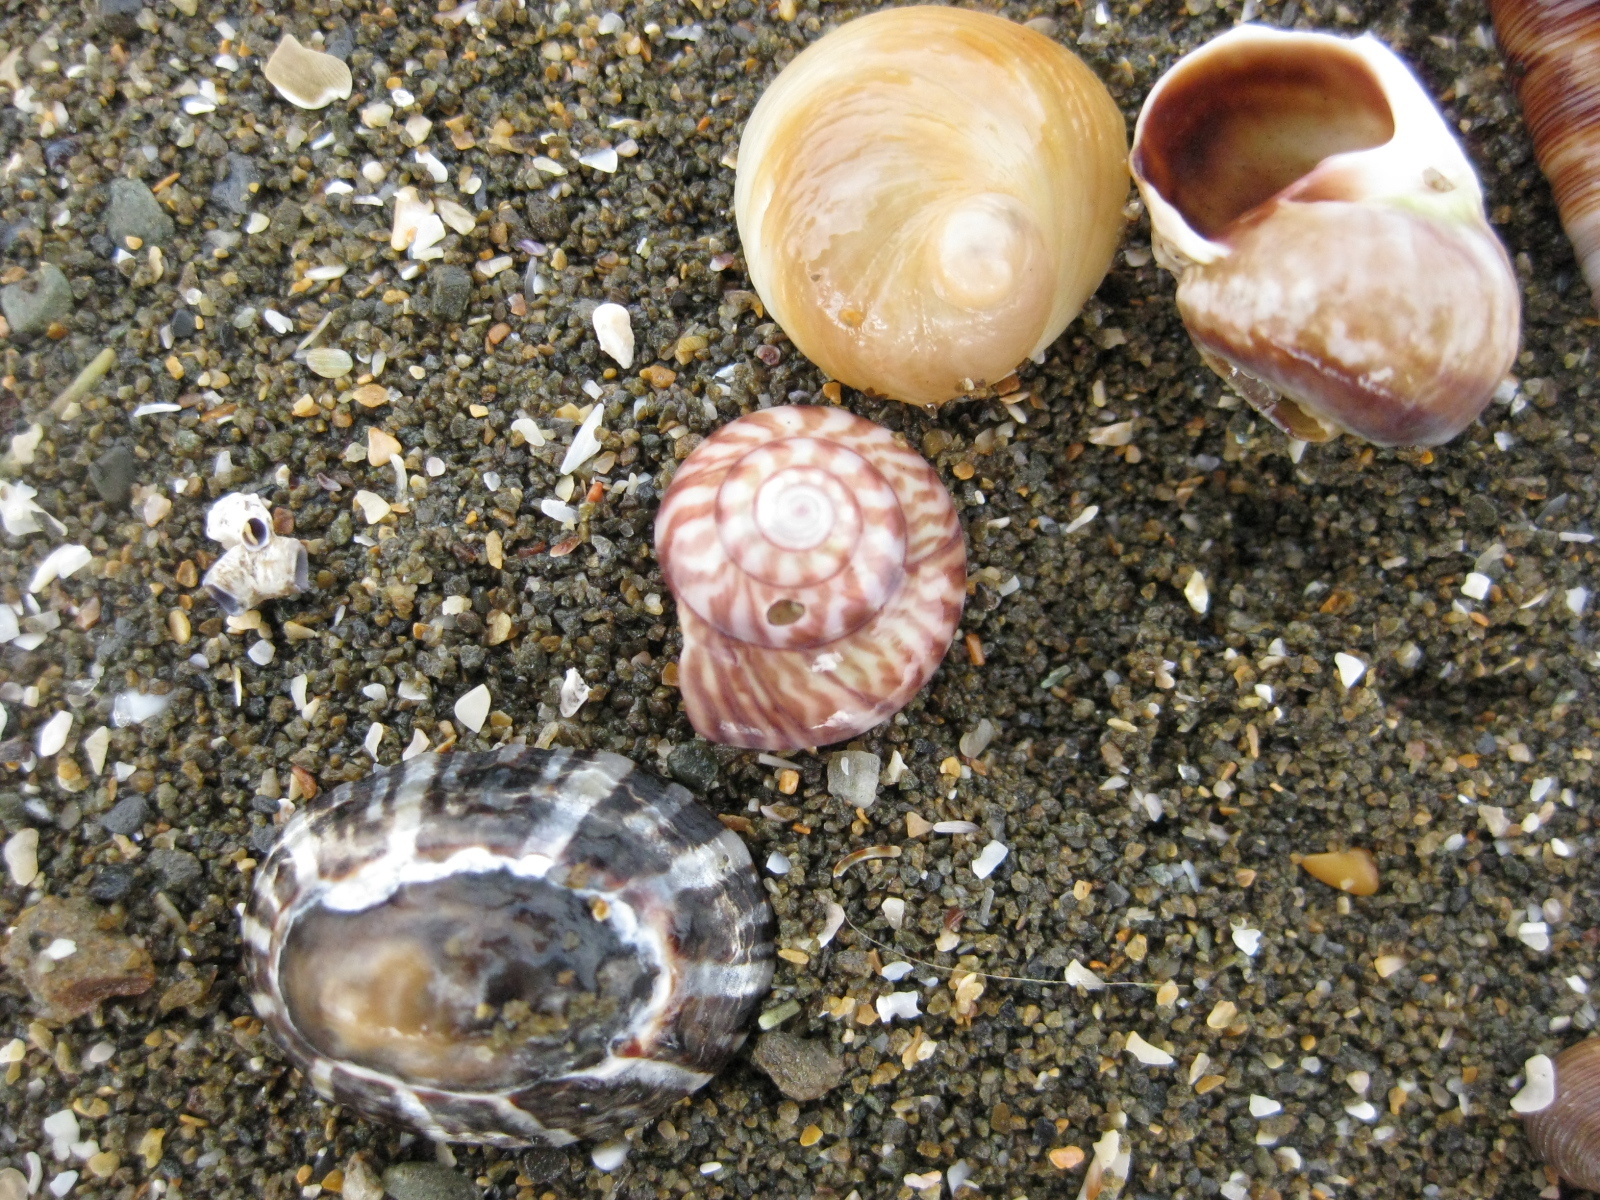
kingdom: Animalia
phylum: Mollusca
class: Gastropoda
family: Amphibolidae
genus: Amphibola
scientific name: Amphibola crenata
